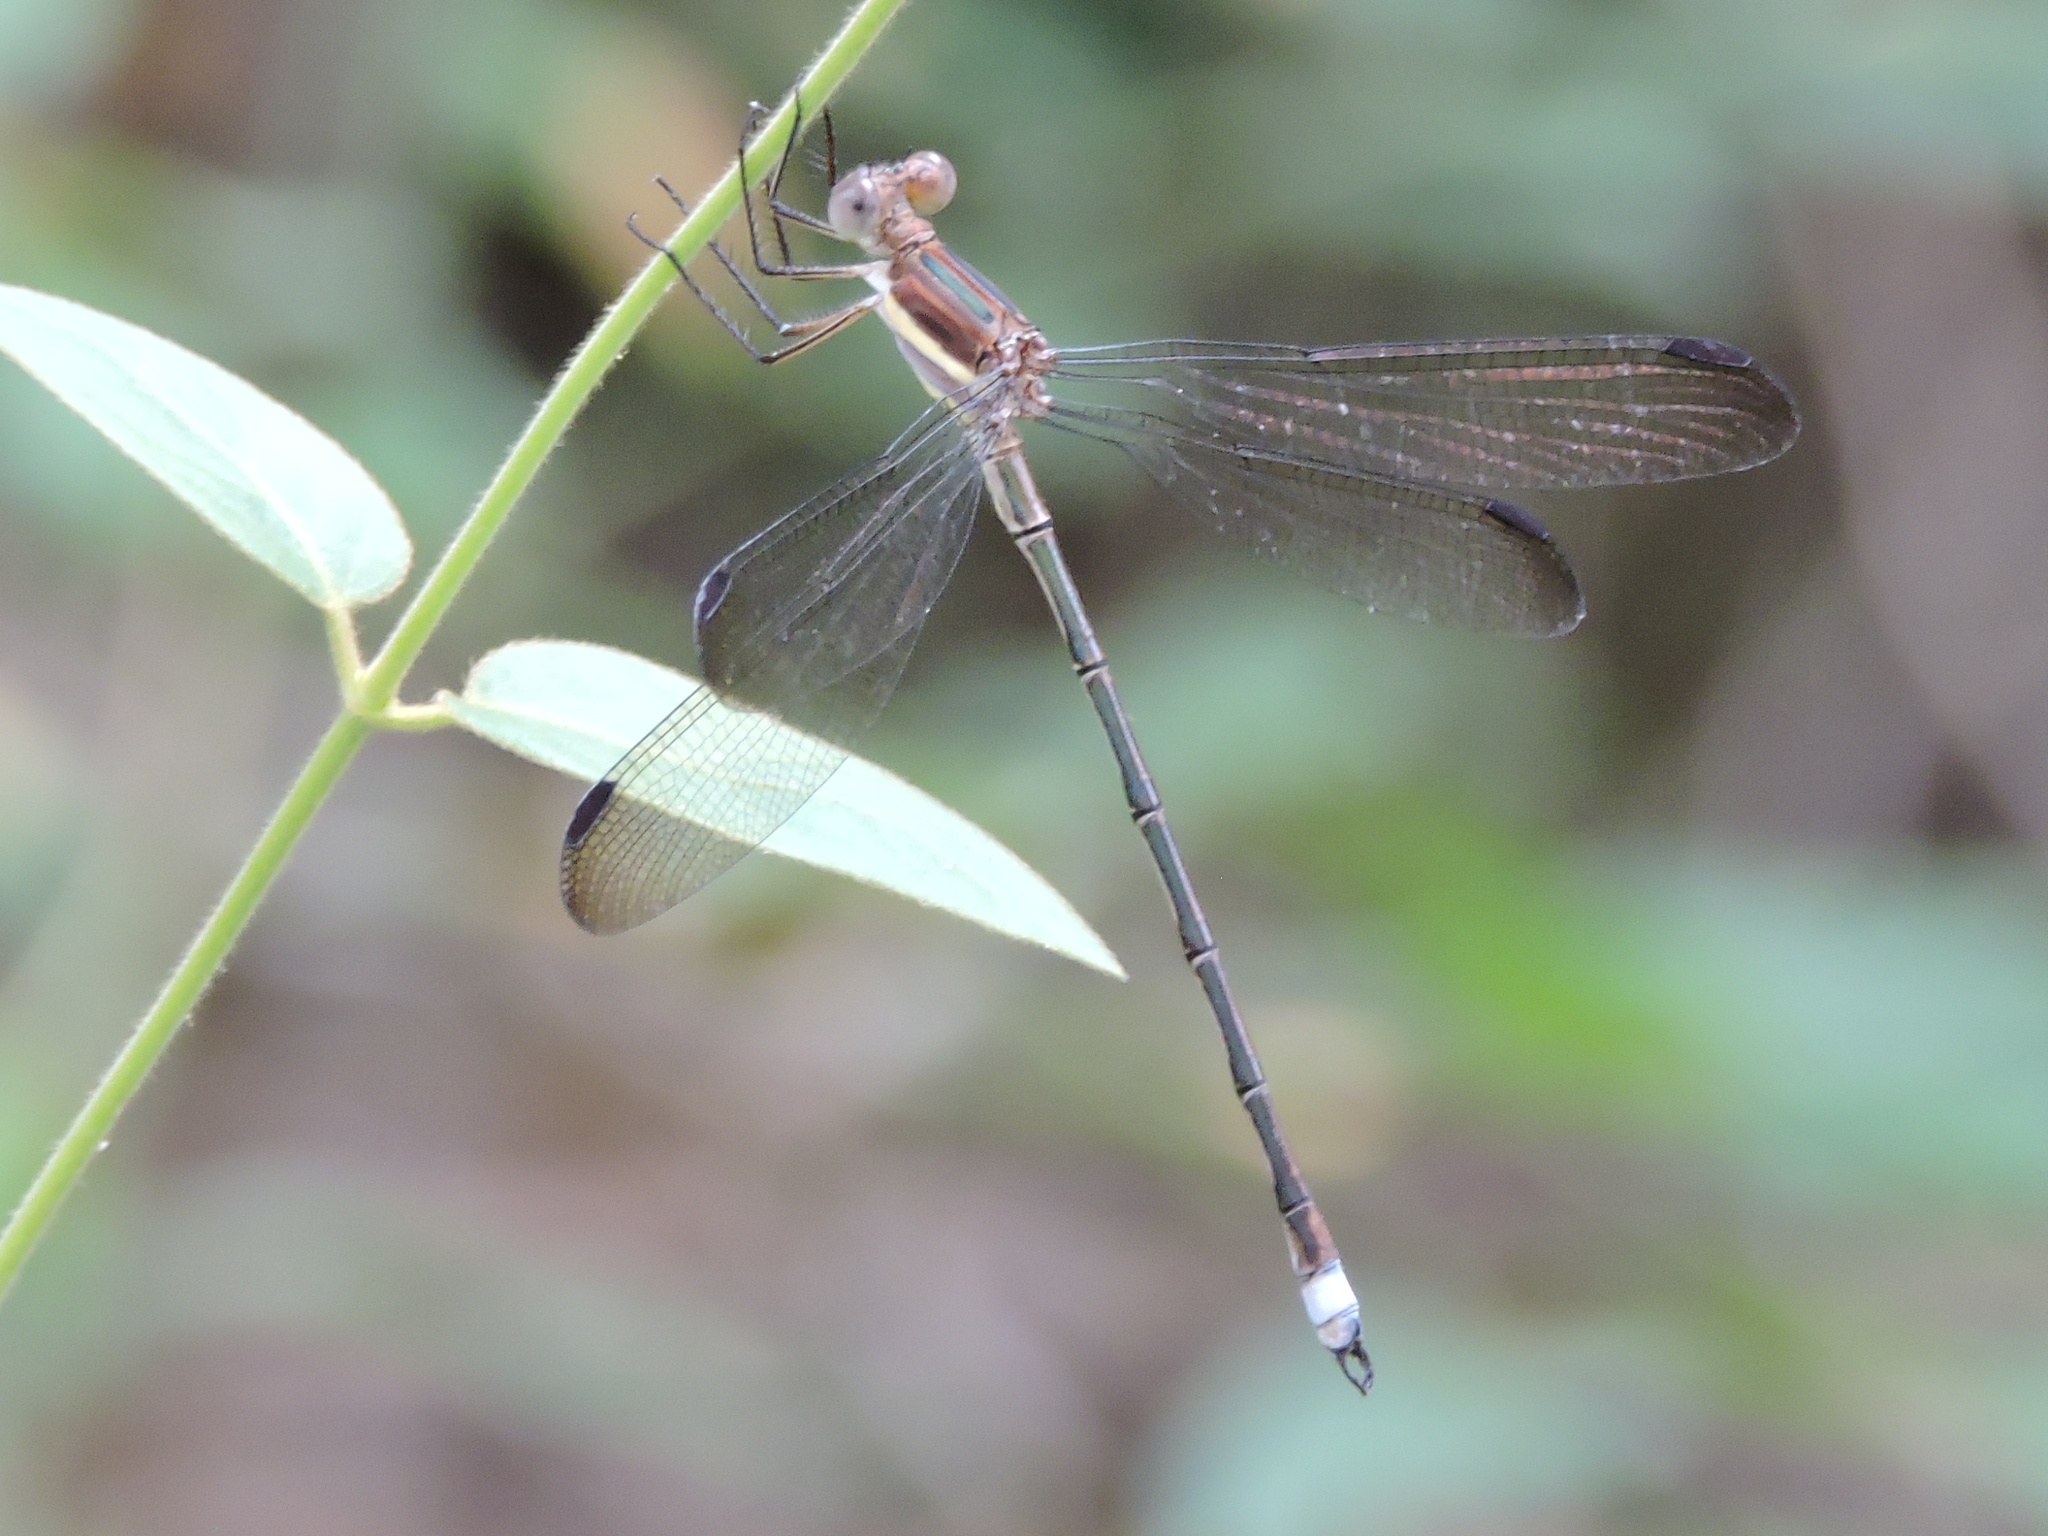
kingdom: Animalia
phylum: Arthropoda
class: Insecta
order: Odonata
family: Lestidae
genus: Archilestes
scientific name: Archilestes grandis
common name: Great spreadwing
